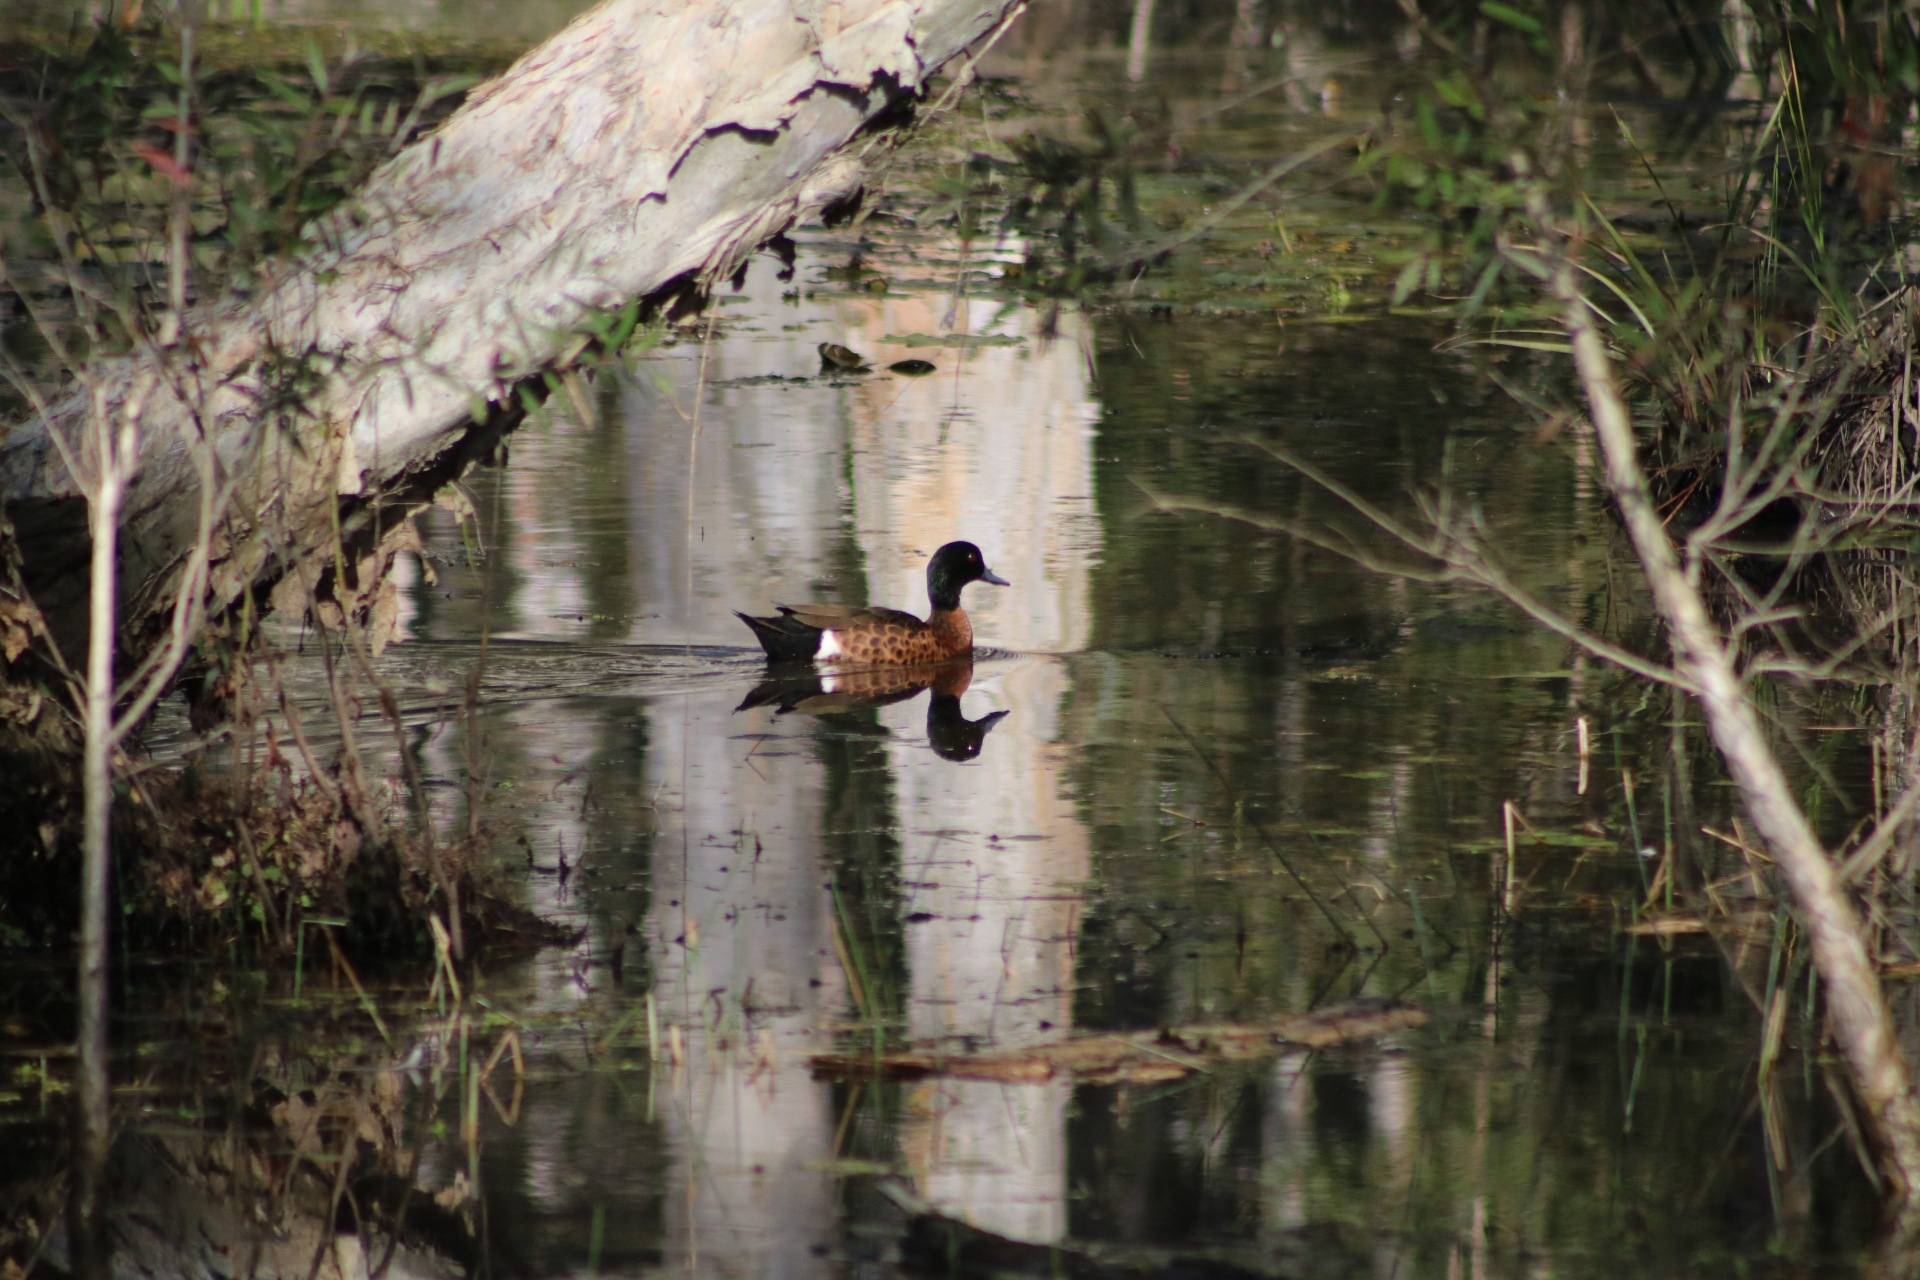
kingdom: Animalia
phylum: Chordata
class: Aves
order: Anseriformes
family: Anatidae
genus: Anas
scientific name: Anas castanea
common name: Chestnut teal
